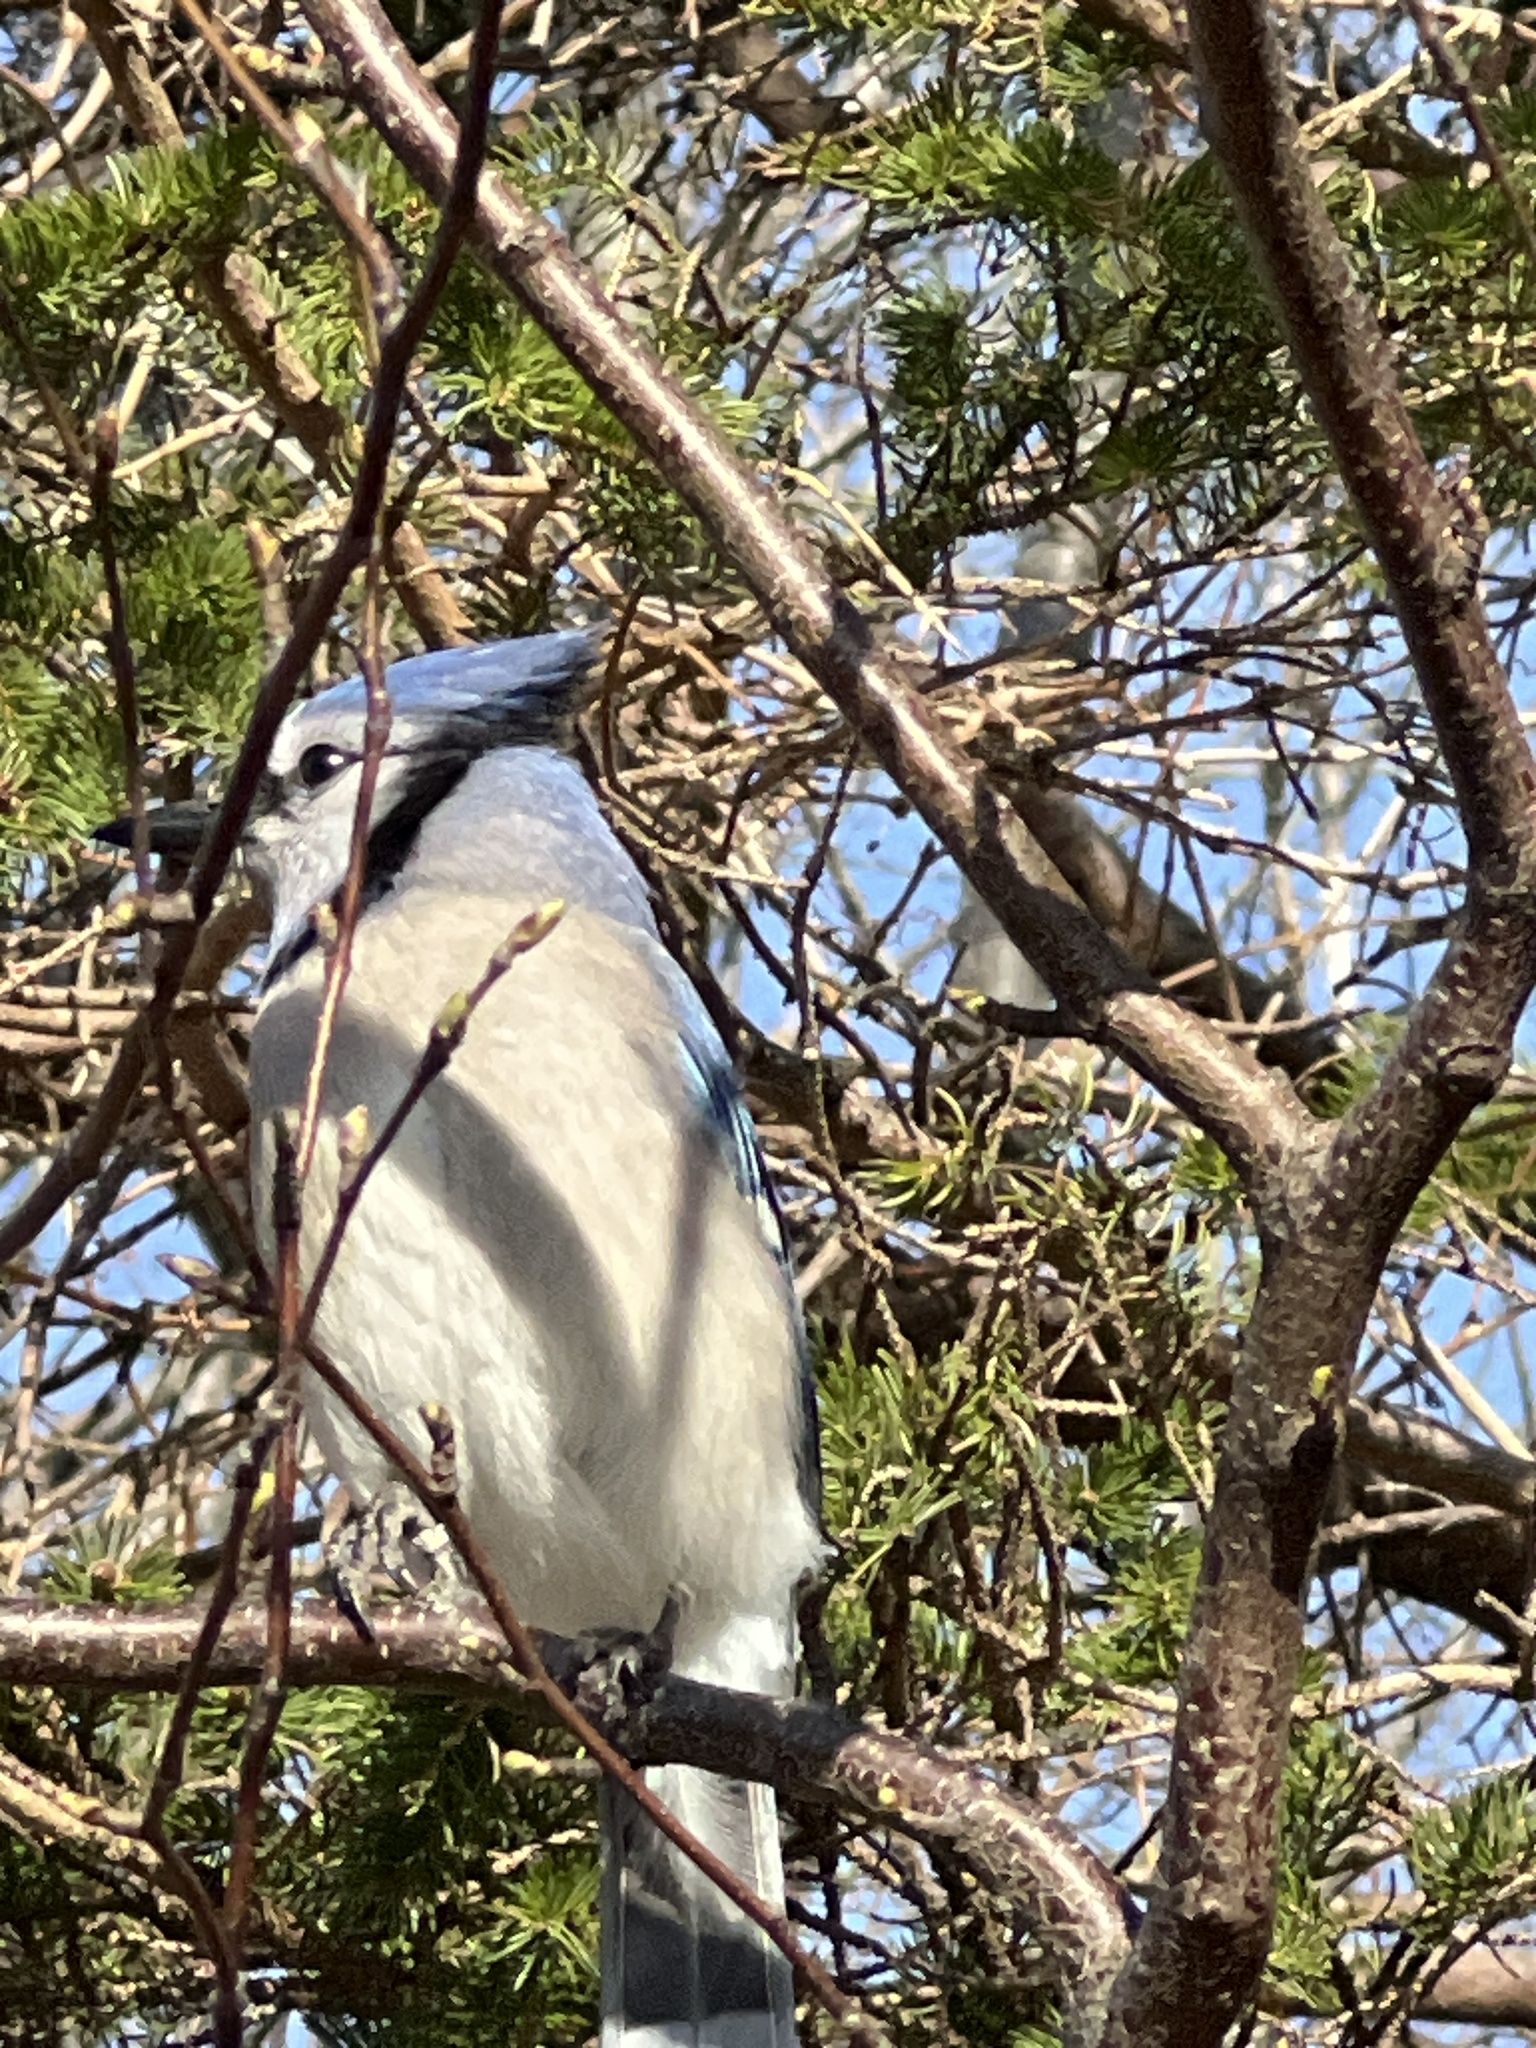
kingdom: Animalia
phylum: Chordata
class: Aves
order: Passeriformes
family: Corvidae
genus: Cyanocitta
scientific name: Cyanocitta cristata
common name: Blue jay
